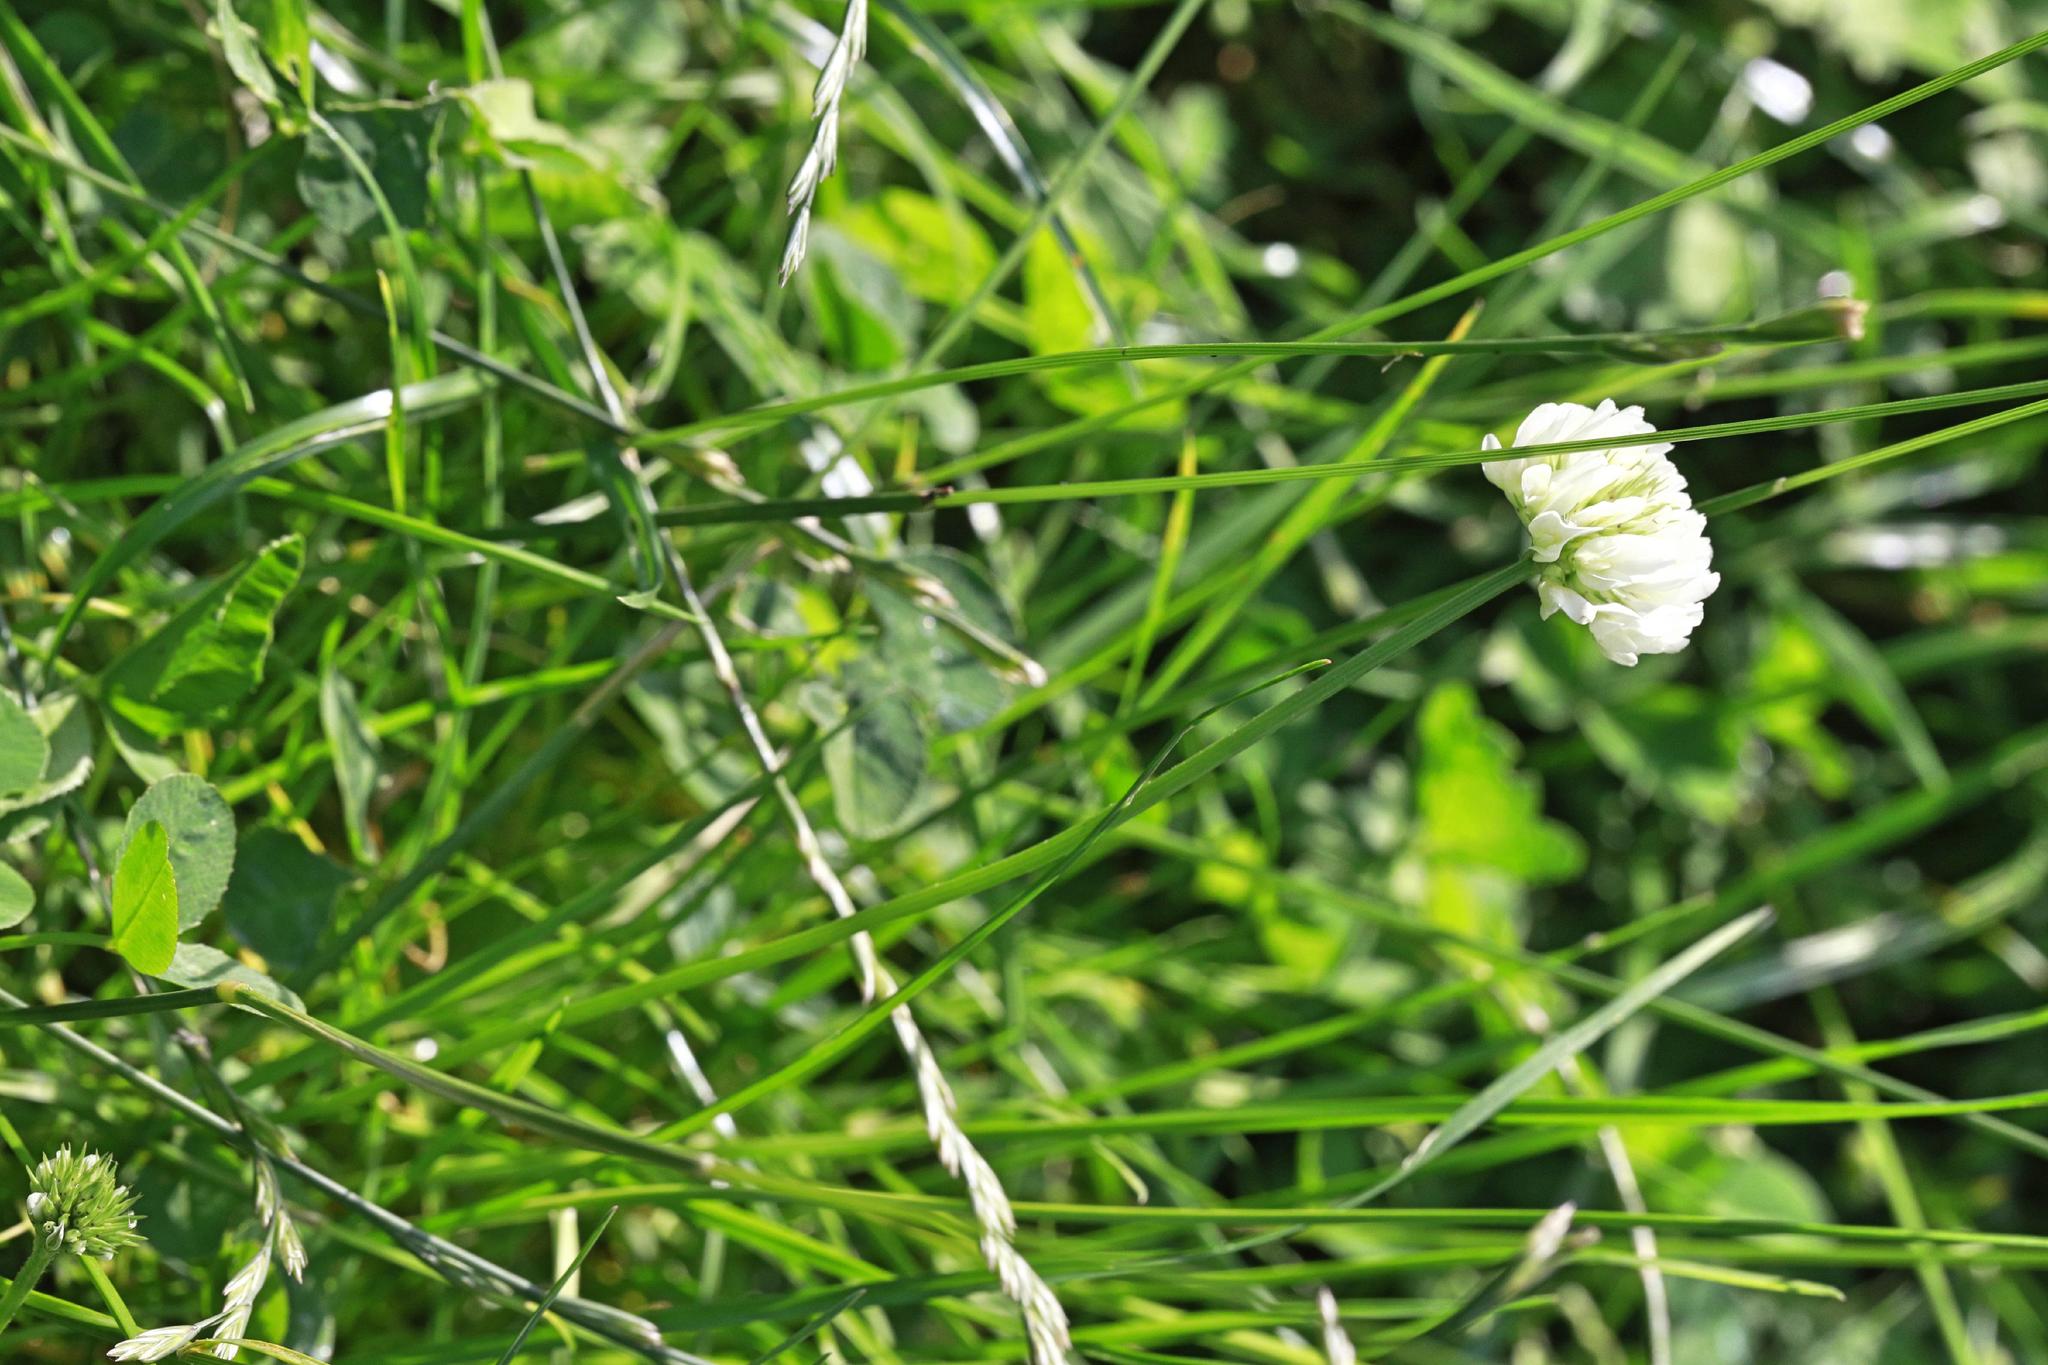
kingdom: Plantae
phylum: Tracheophyta
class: Magnoliopsida
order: Fabales
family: Fabaceae
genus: Trifolium
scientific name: Trifolium repens
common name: White clover
